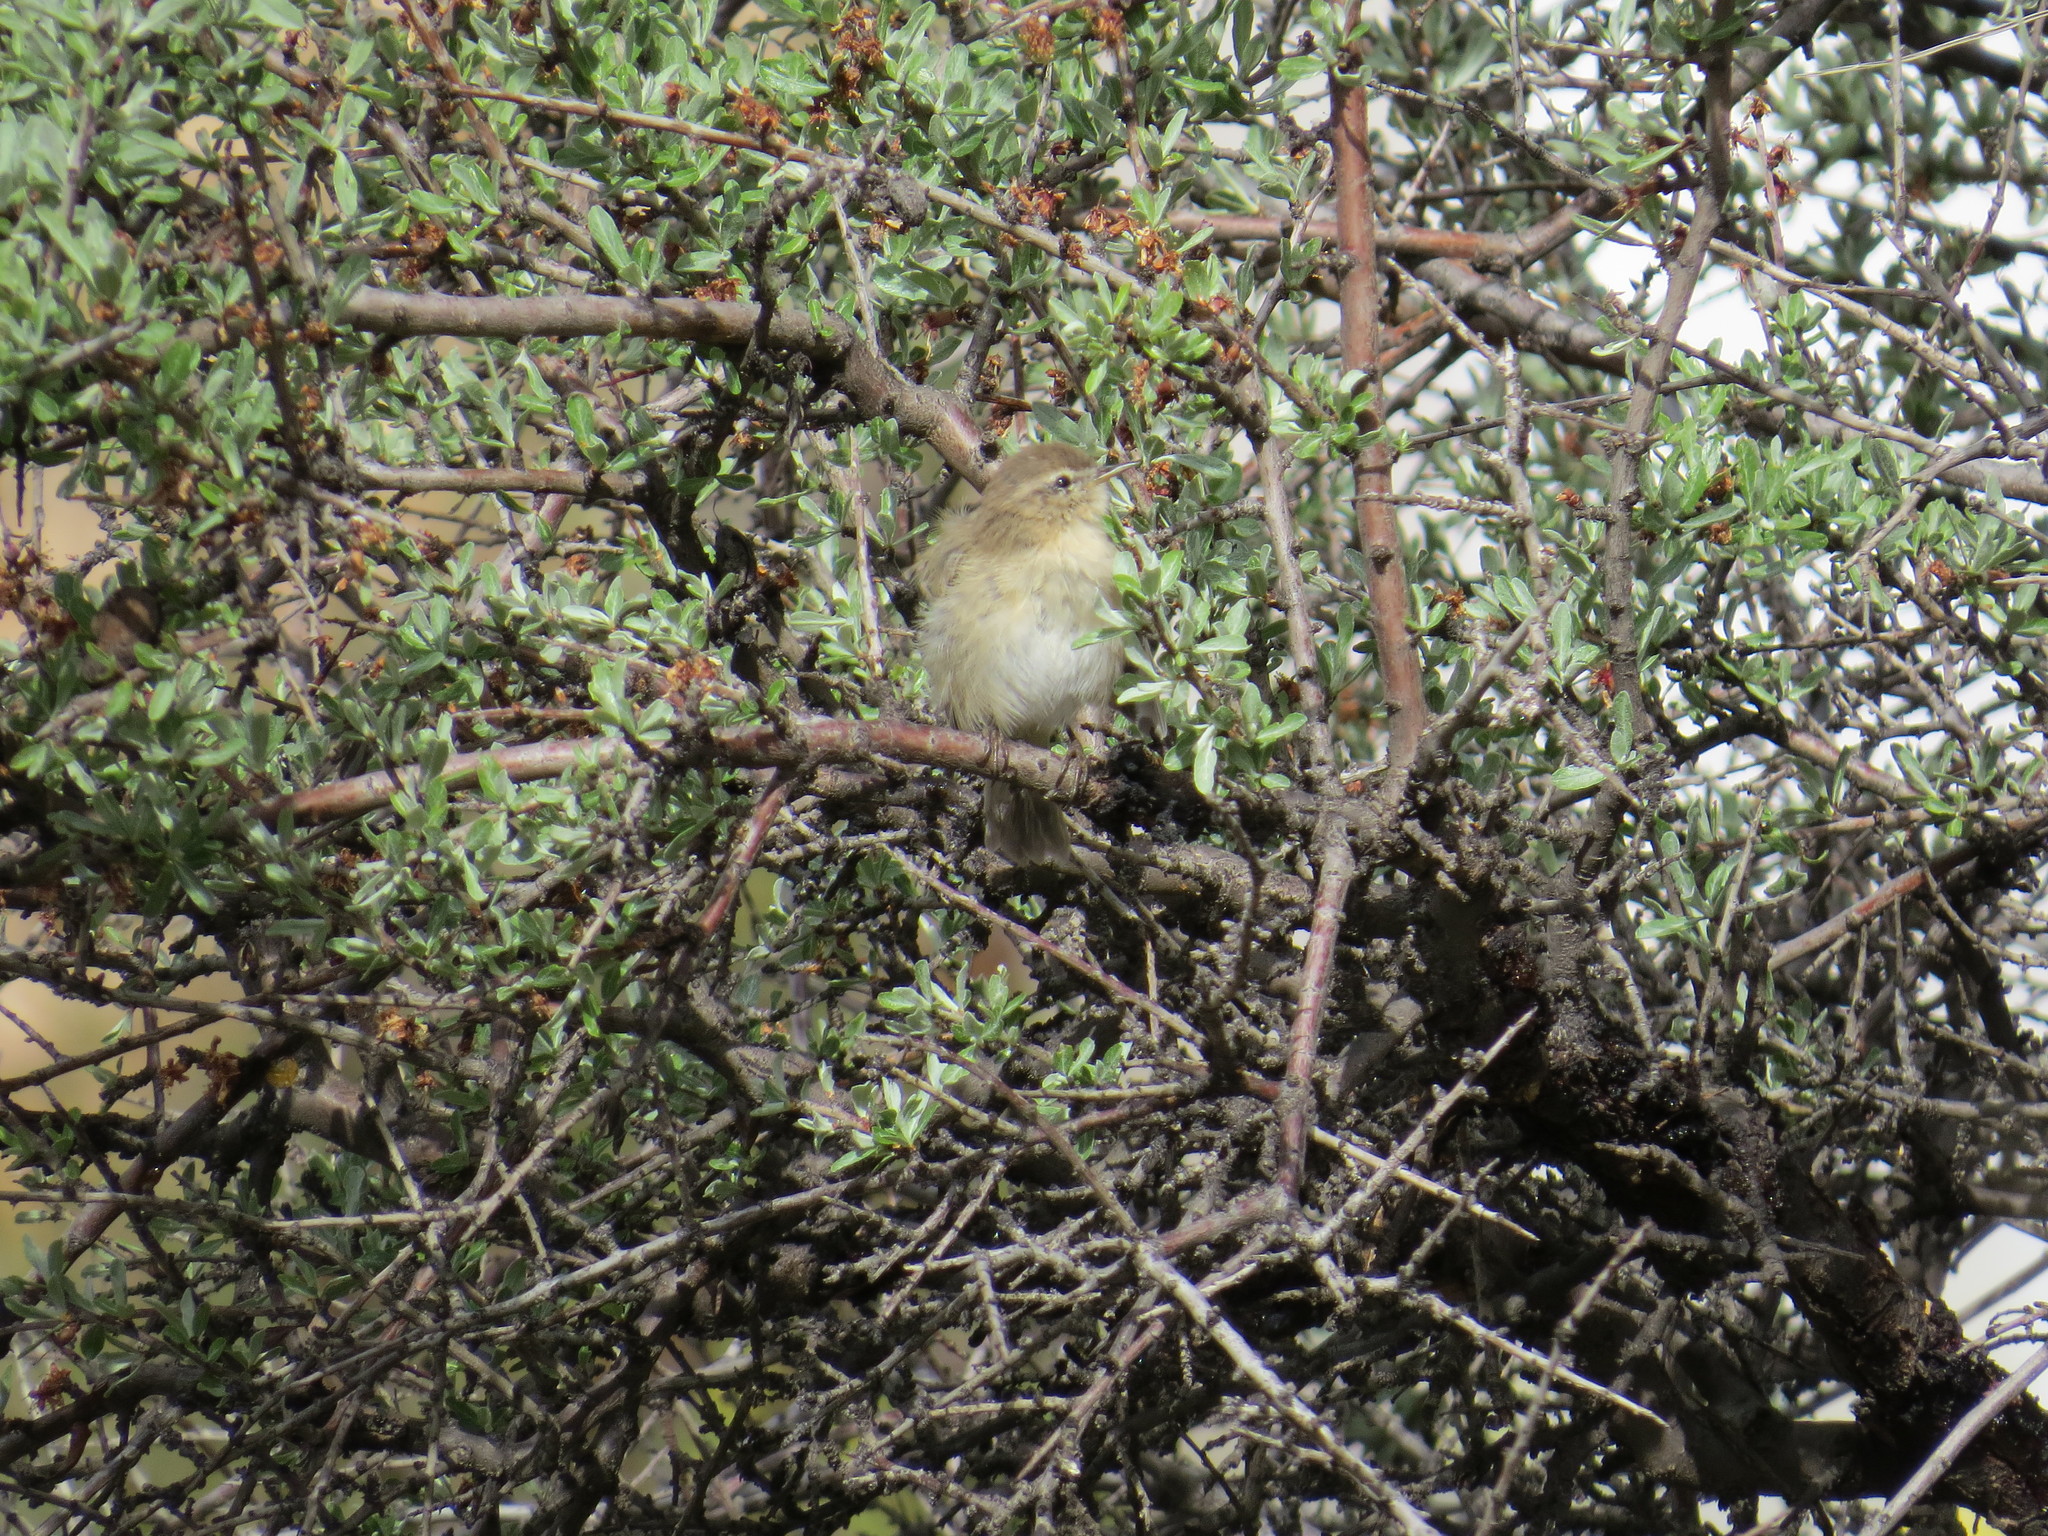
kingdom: Animalia
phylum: Chordata
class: Aves
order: Passeriformes
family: Phylloscopidae
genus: Phylloscopus
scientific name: Phylloscopus collybita
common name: Common chiffchaff
